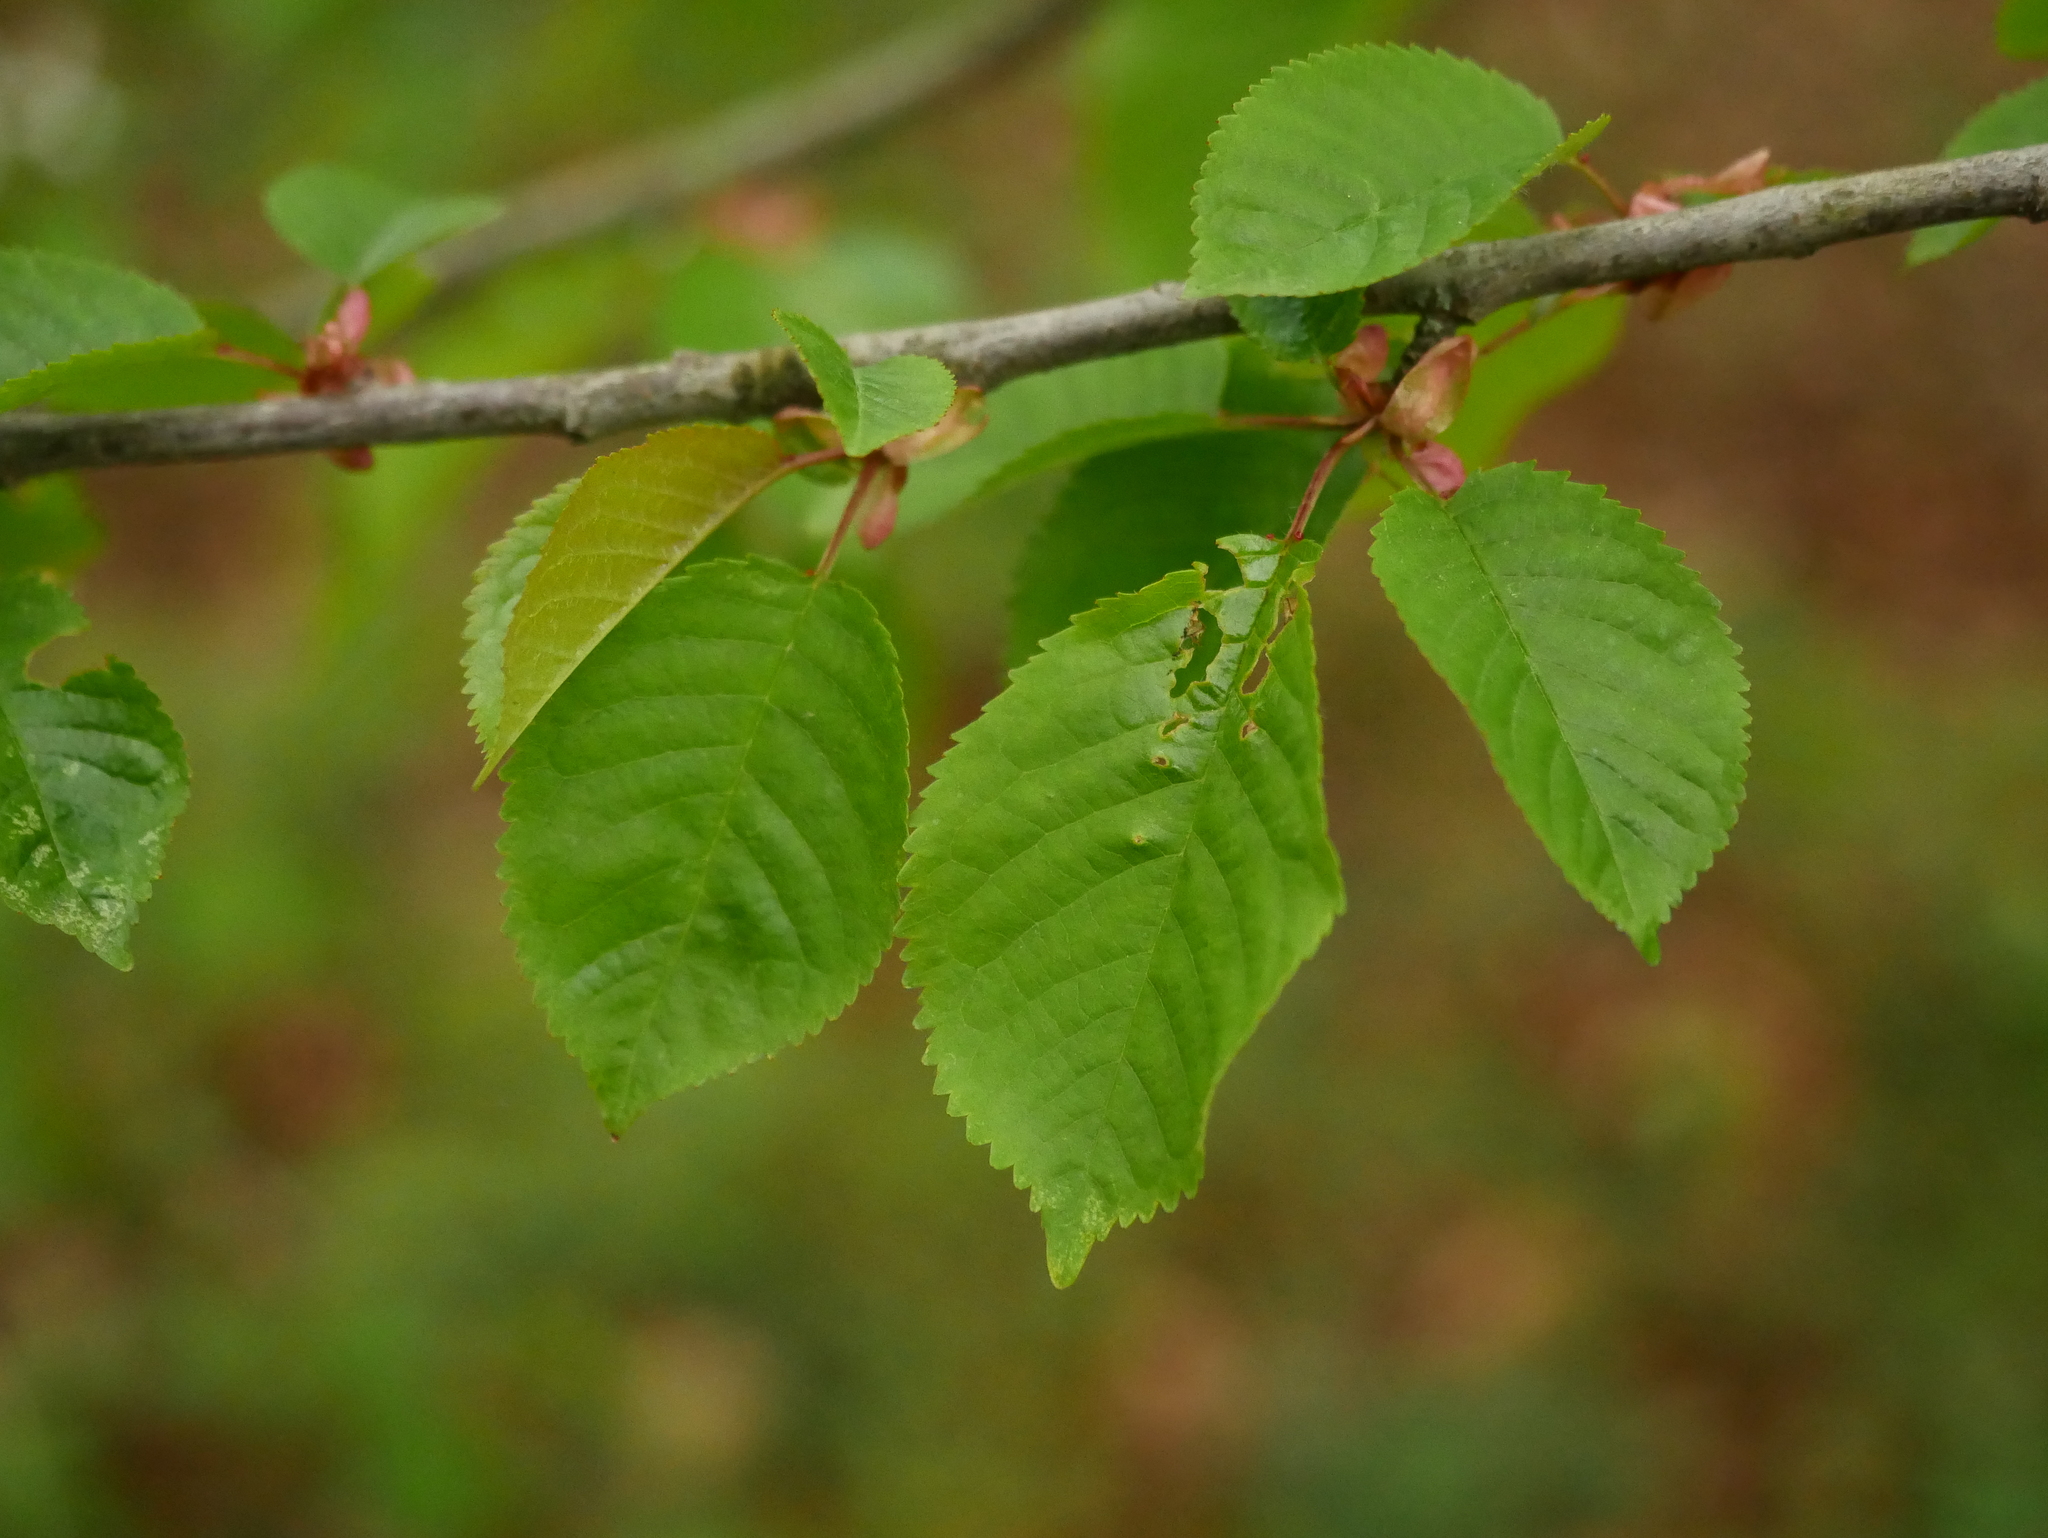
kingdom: Plantae
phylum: Tracheophyta
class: Magnoliopsida
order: Rosales
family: Rosaceae
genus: Prunus
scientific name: Prunus avium
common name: Sweet cherry
